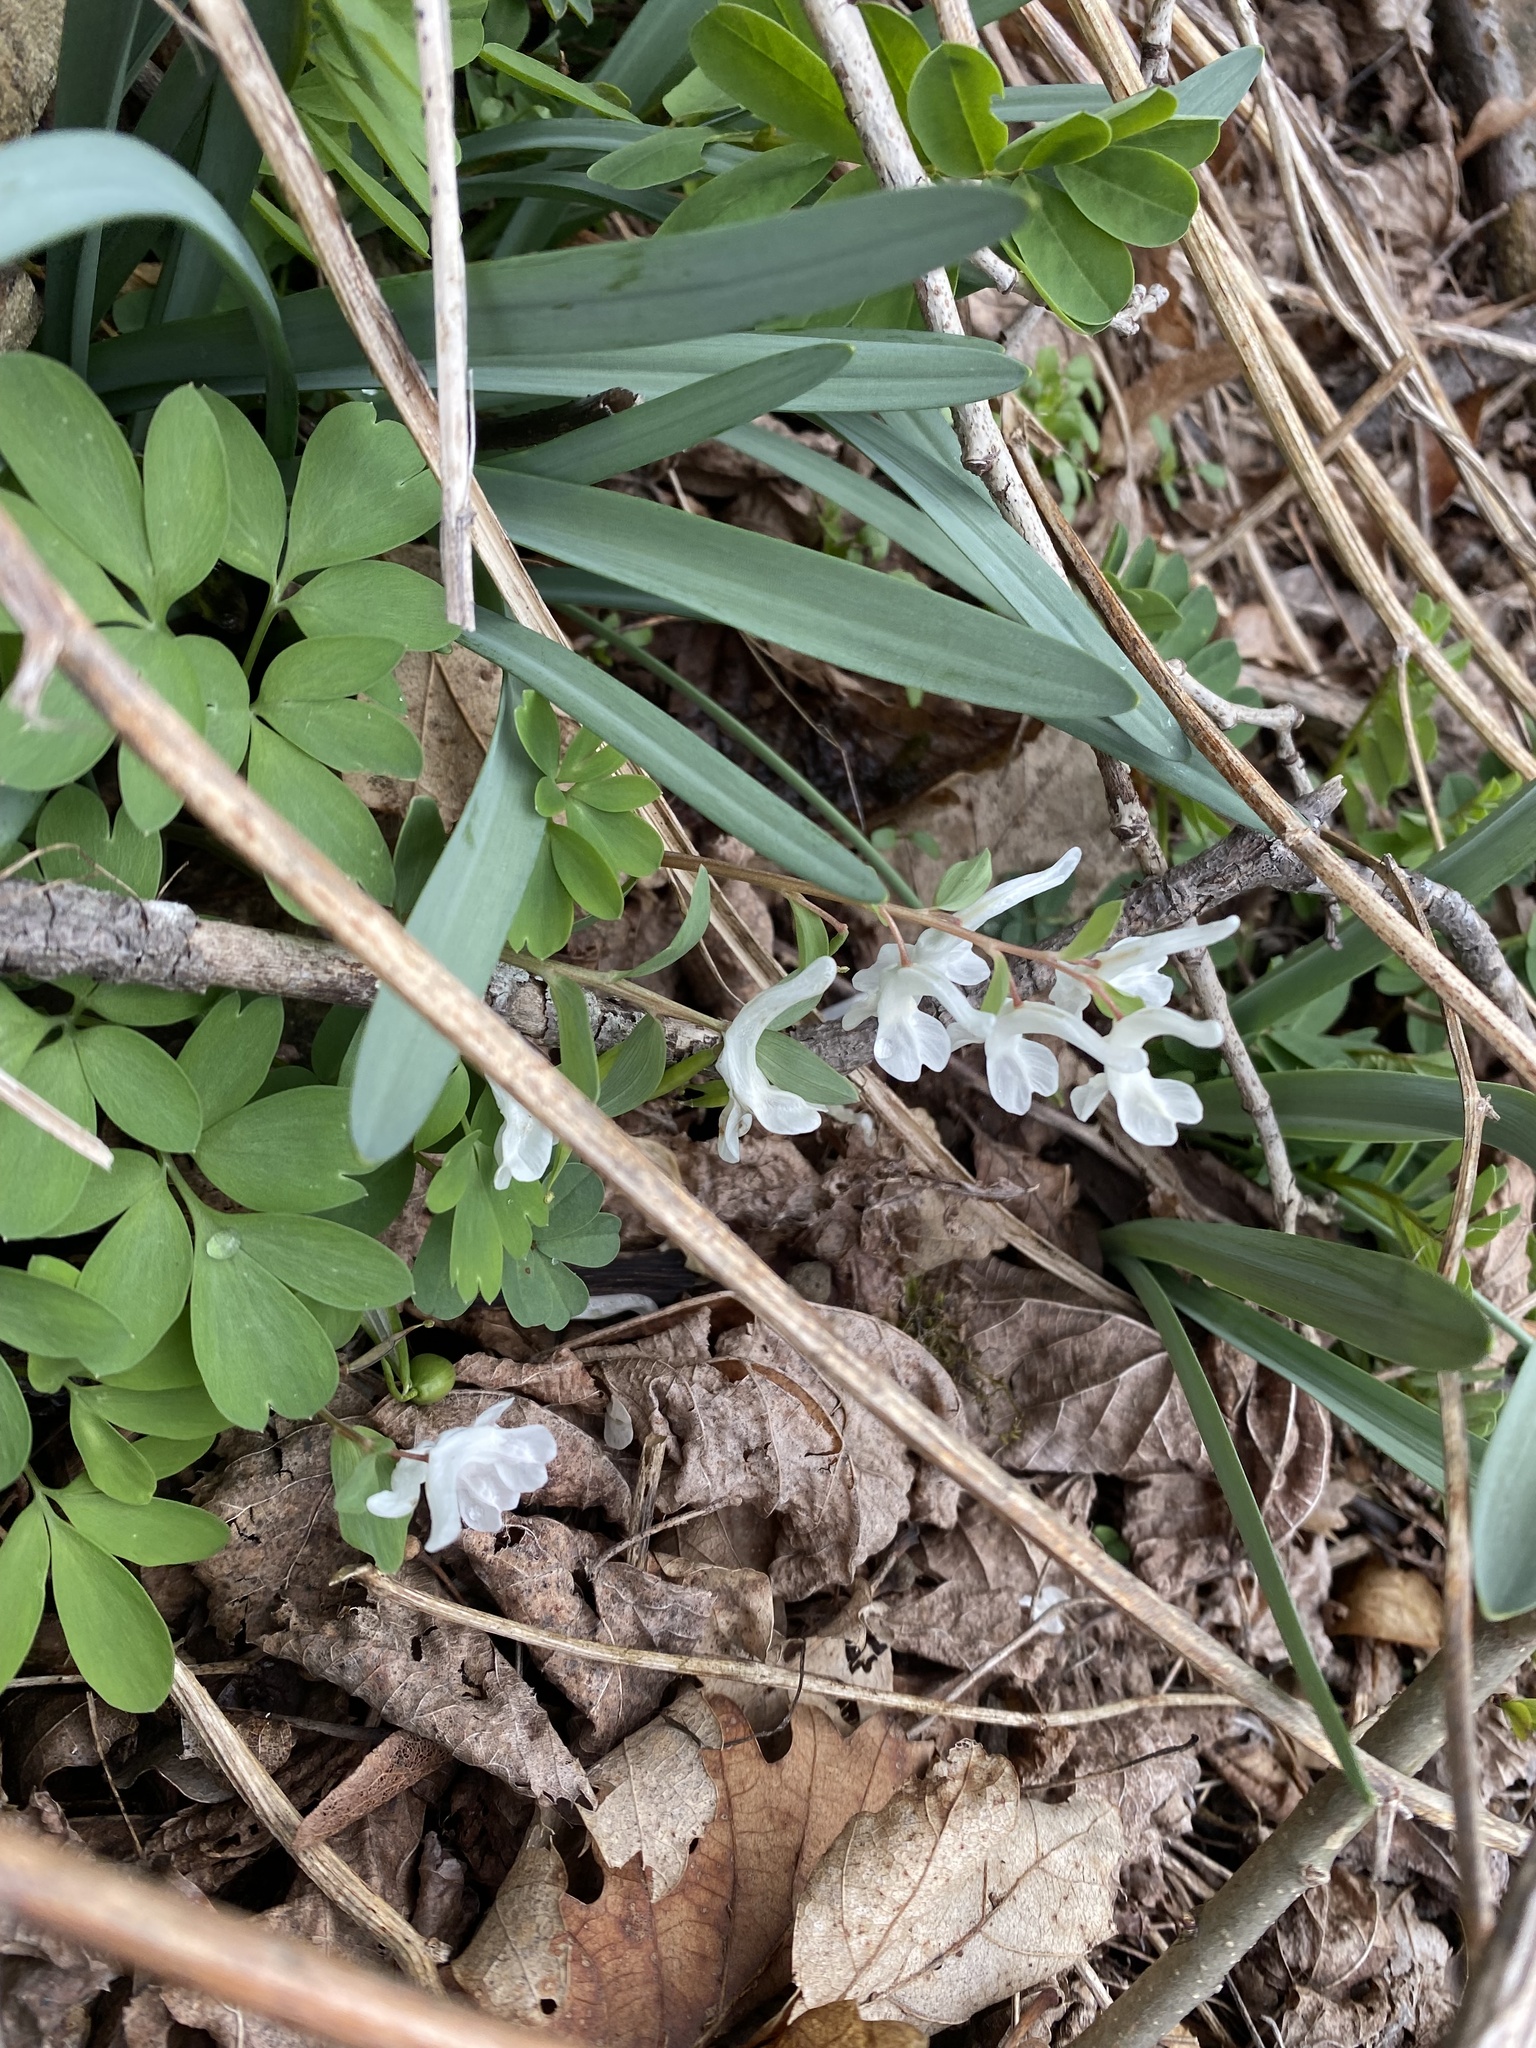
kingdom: Plantae
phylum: Tracheophyta
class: Magnoliopsida
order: Ranunculales
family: Papaveraceae
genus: Corydalis
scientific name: Corydalis caucasica
